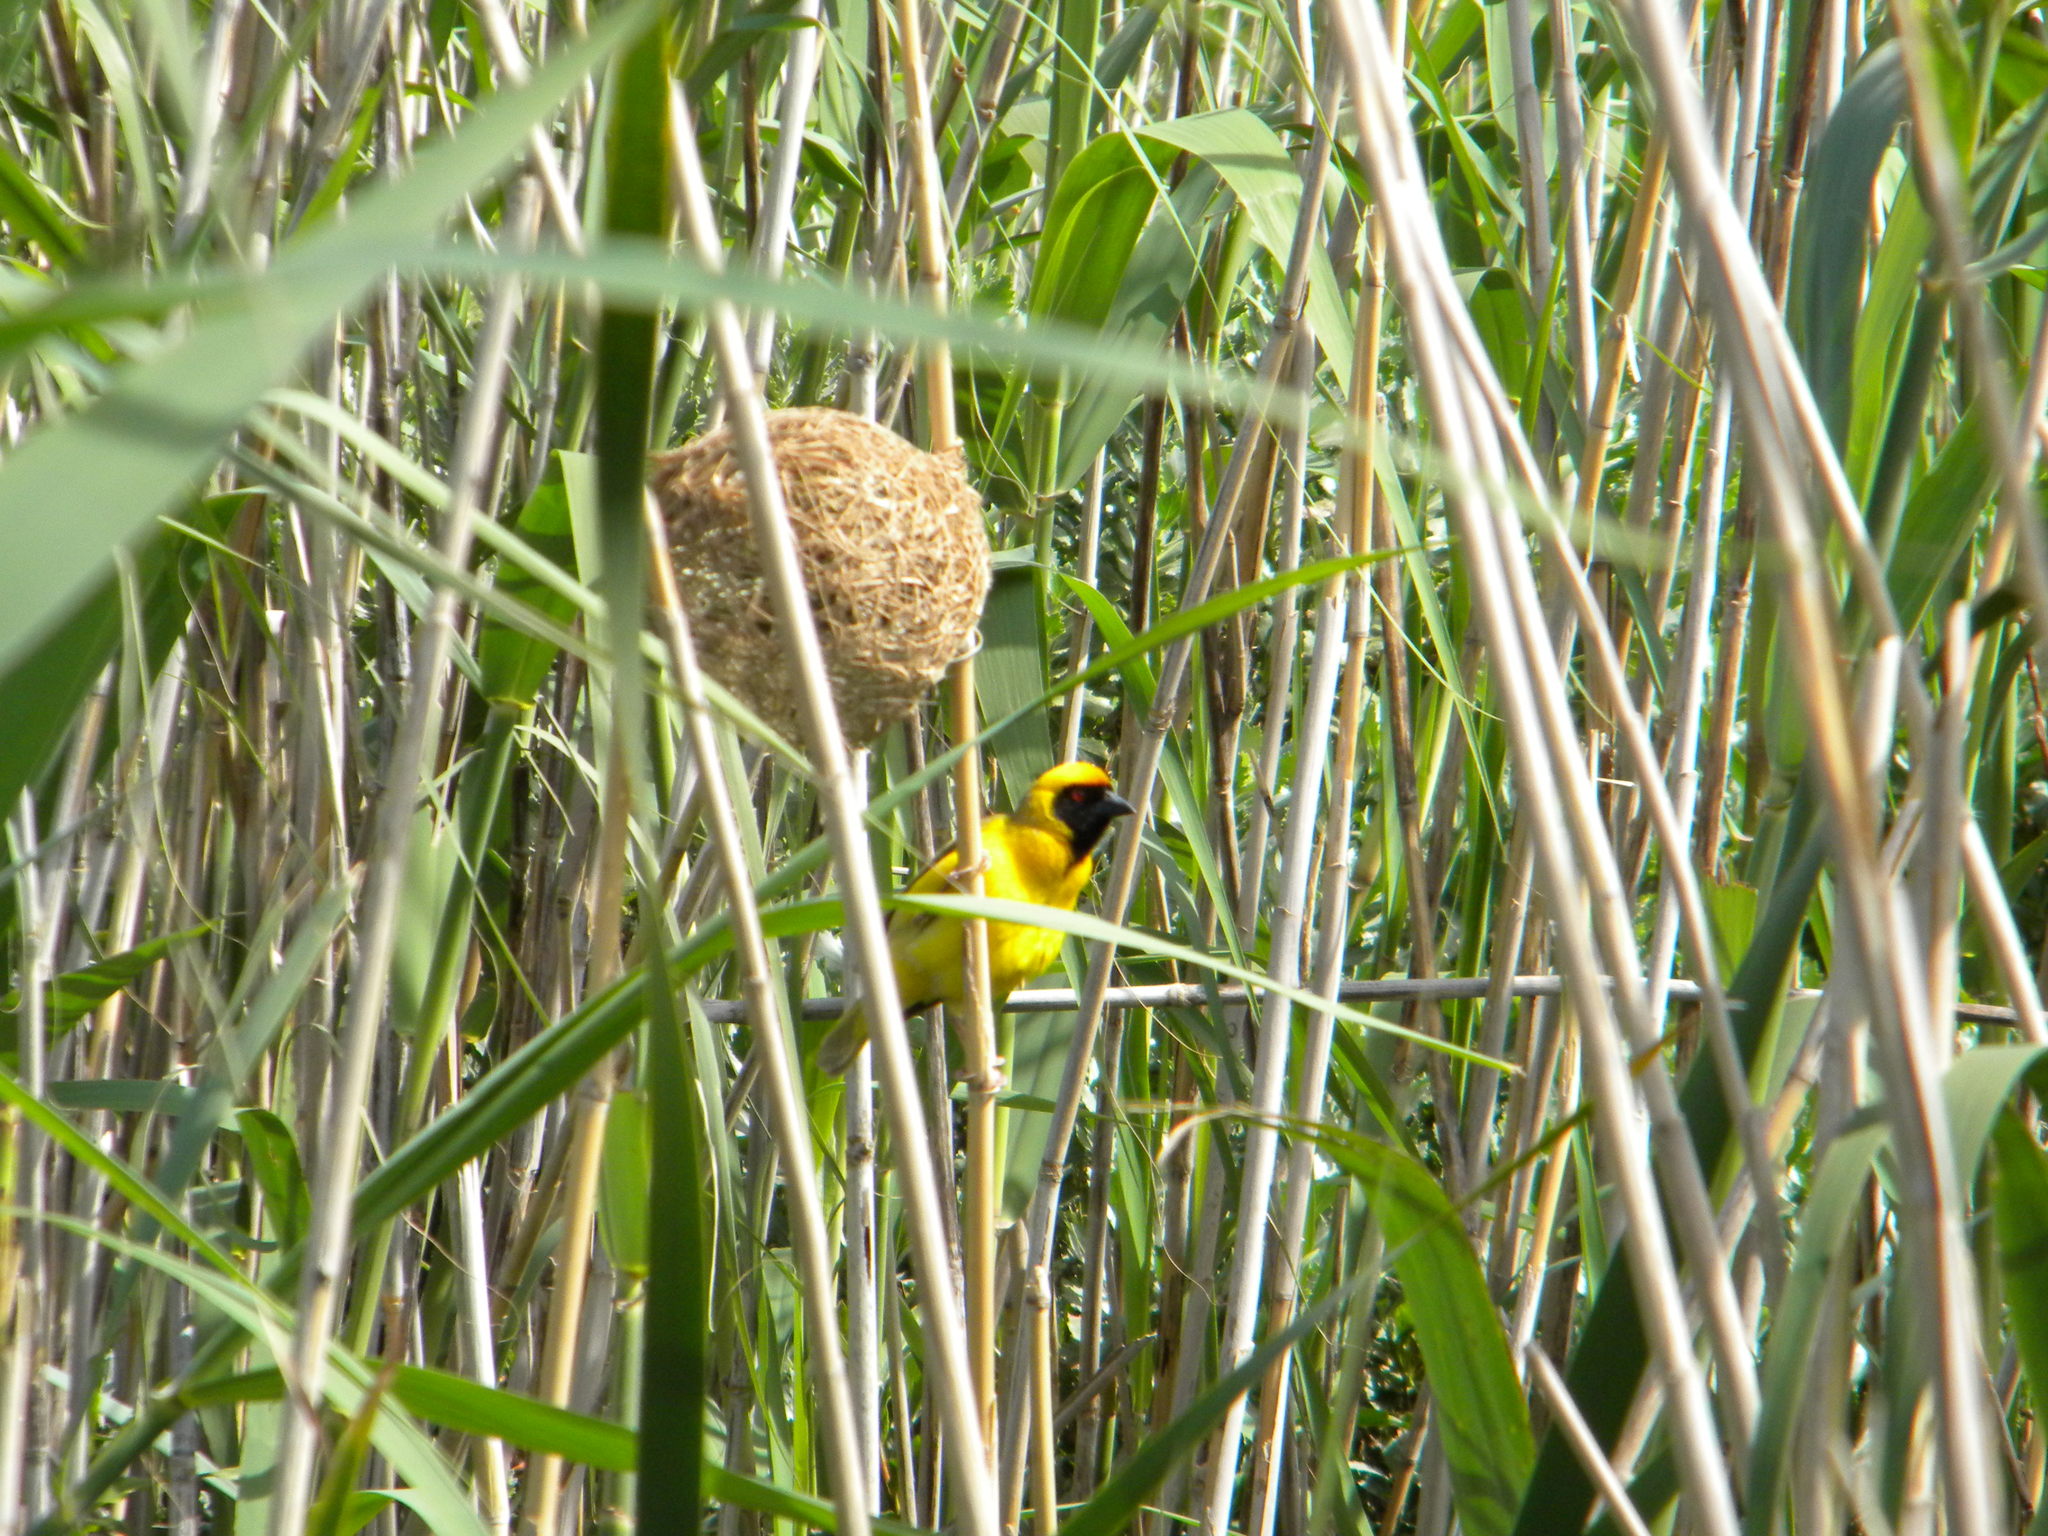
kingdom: Animalia
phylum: Chordata
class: Aves
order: Passeriformes
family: Ploceidae
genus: Ploceus
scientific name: Ploceus velatus
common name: Southern masked weaver
